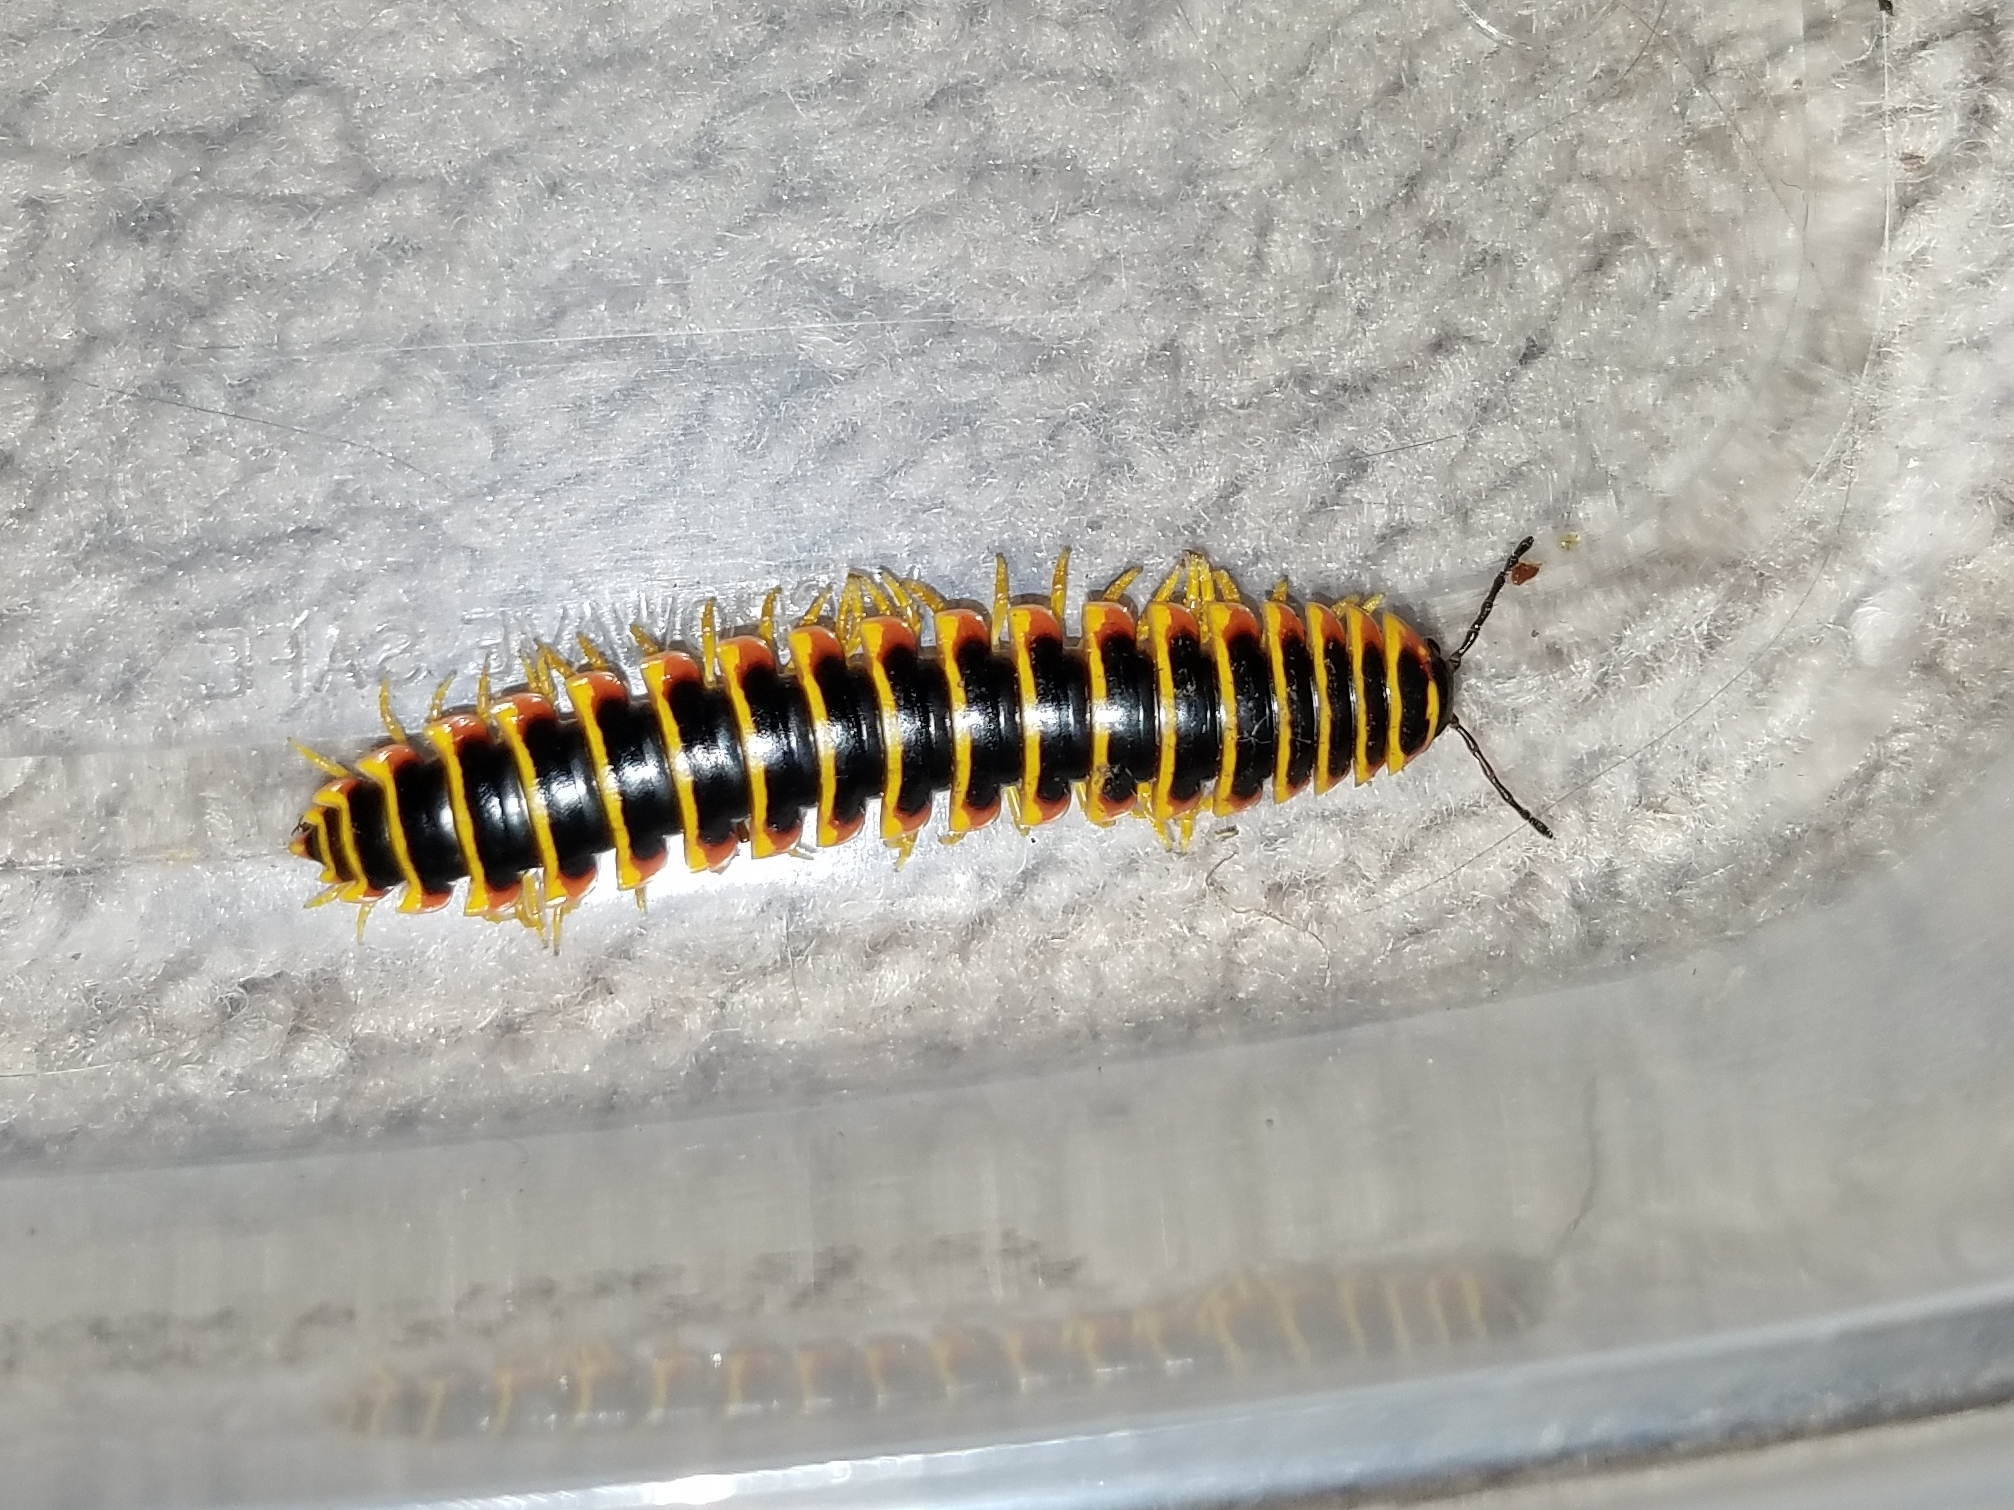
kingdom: Animalia
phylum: Arthropoda
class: Diplopoda
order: Polydesmida
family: Xystodesmidae
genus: Apheloria
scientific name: Apheloria virginiensis
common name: Black-and-gold flat millipede
